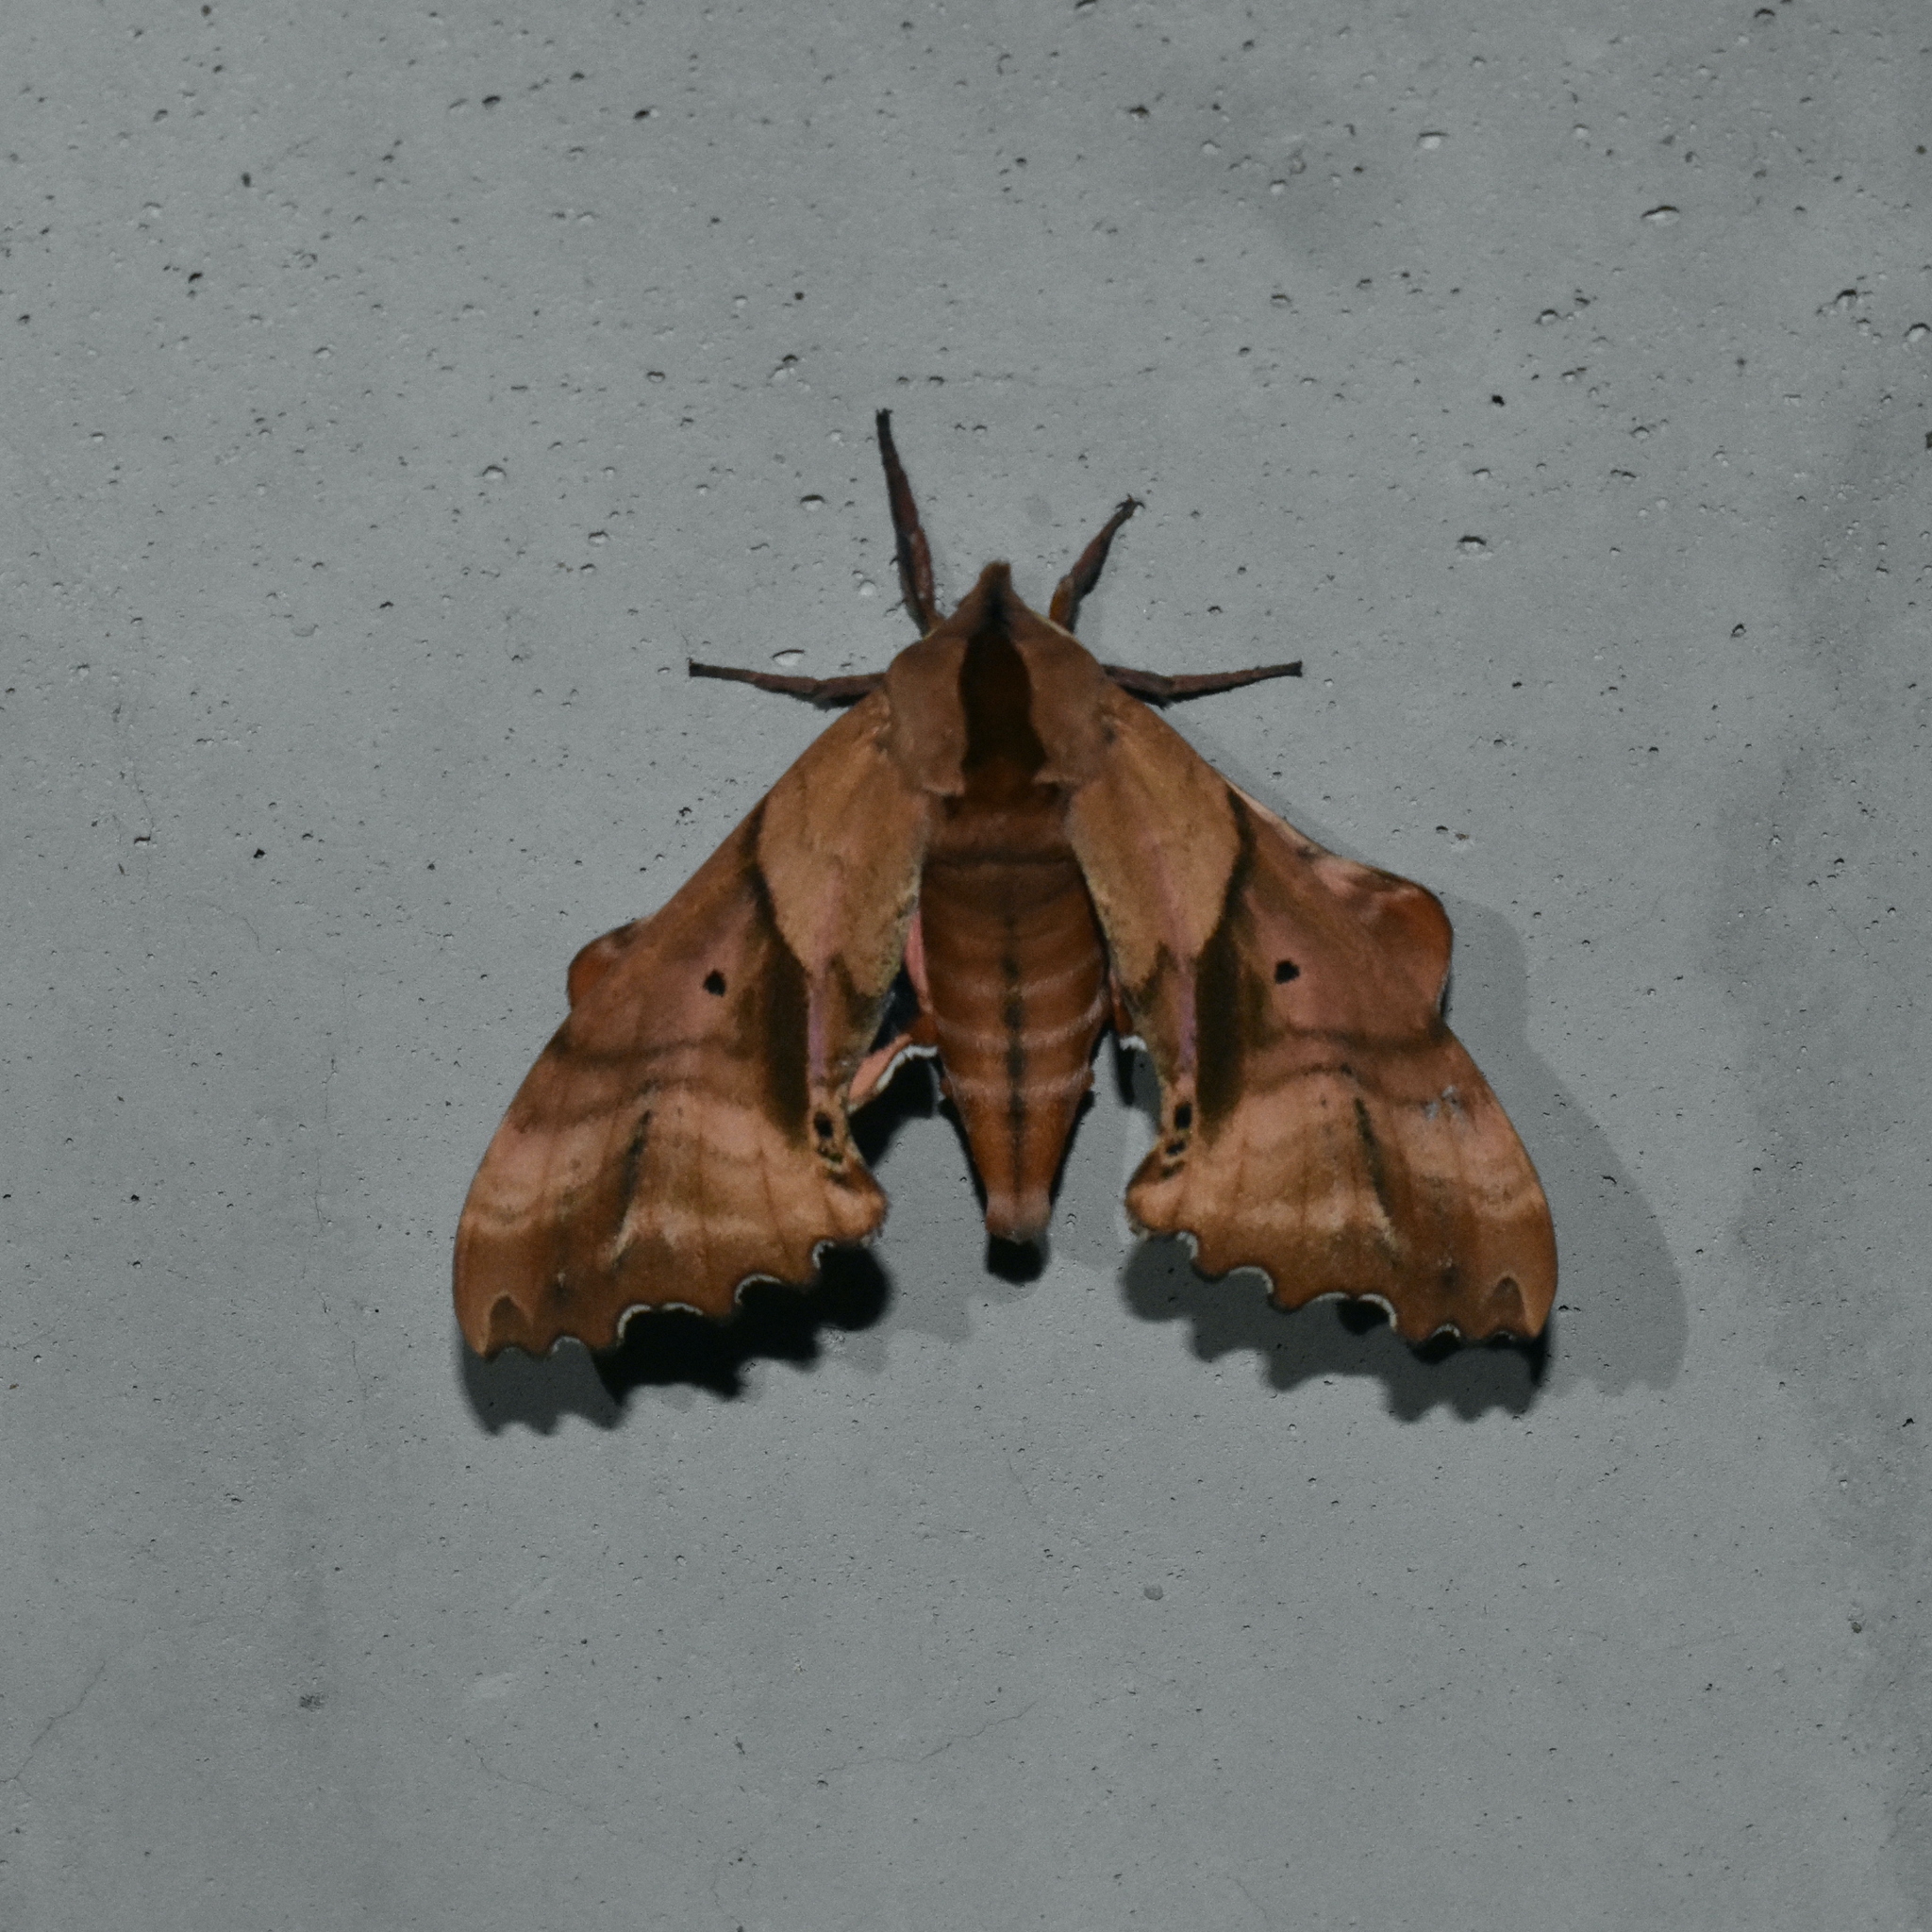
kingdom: Animalia
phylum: Arthropoda
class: Insecta
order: Lepidoptera
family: Sphingidae
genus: Paonias
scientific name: Paonias excaecata
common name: Blind-eyed sphinx
